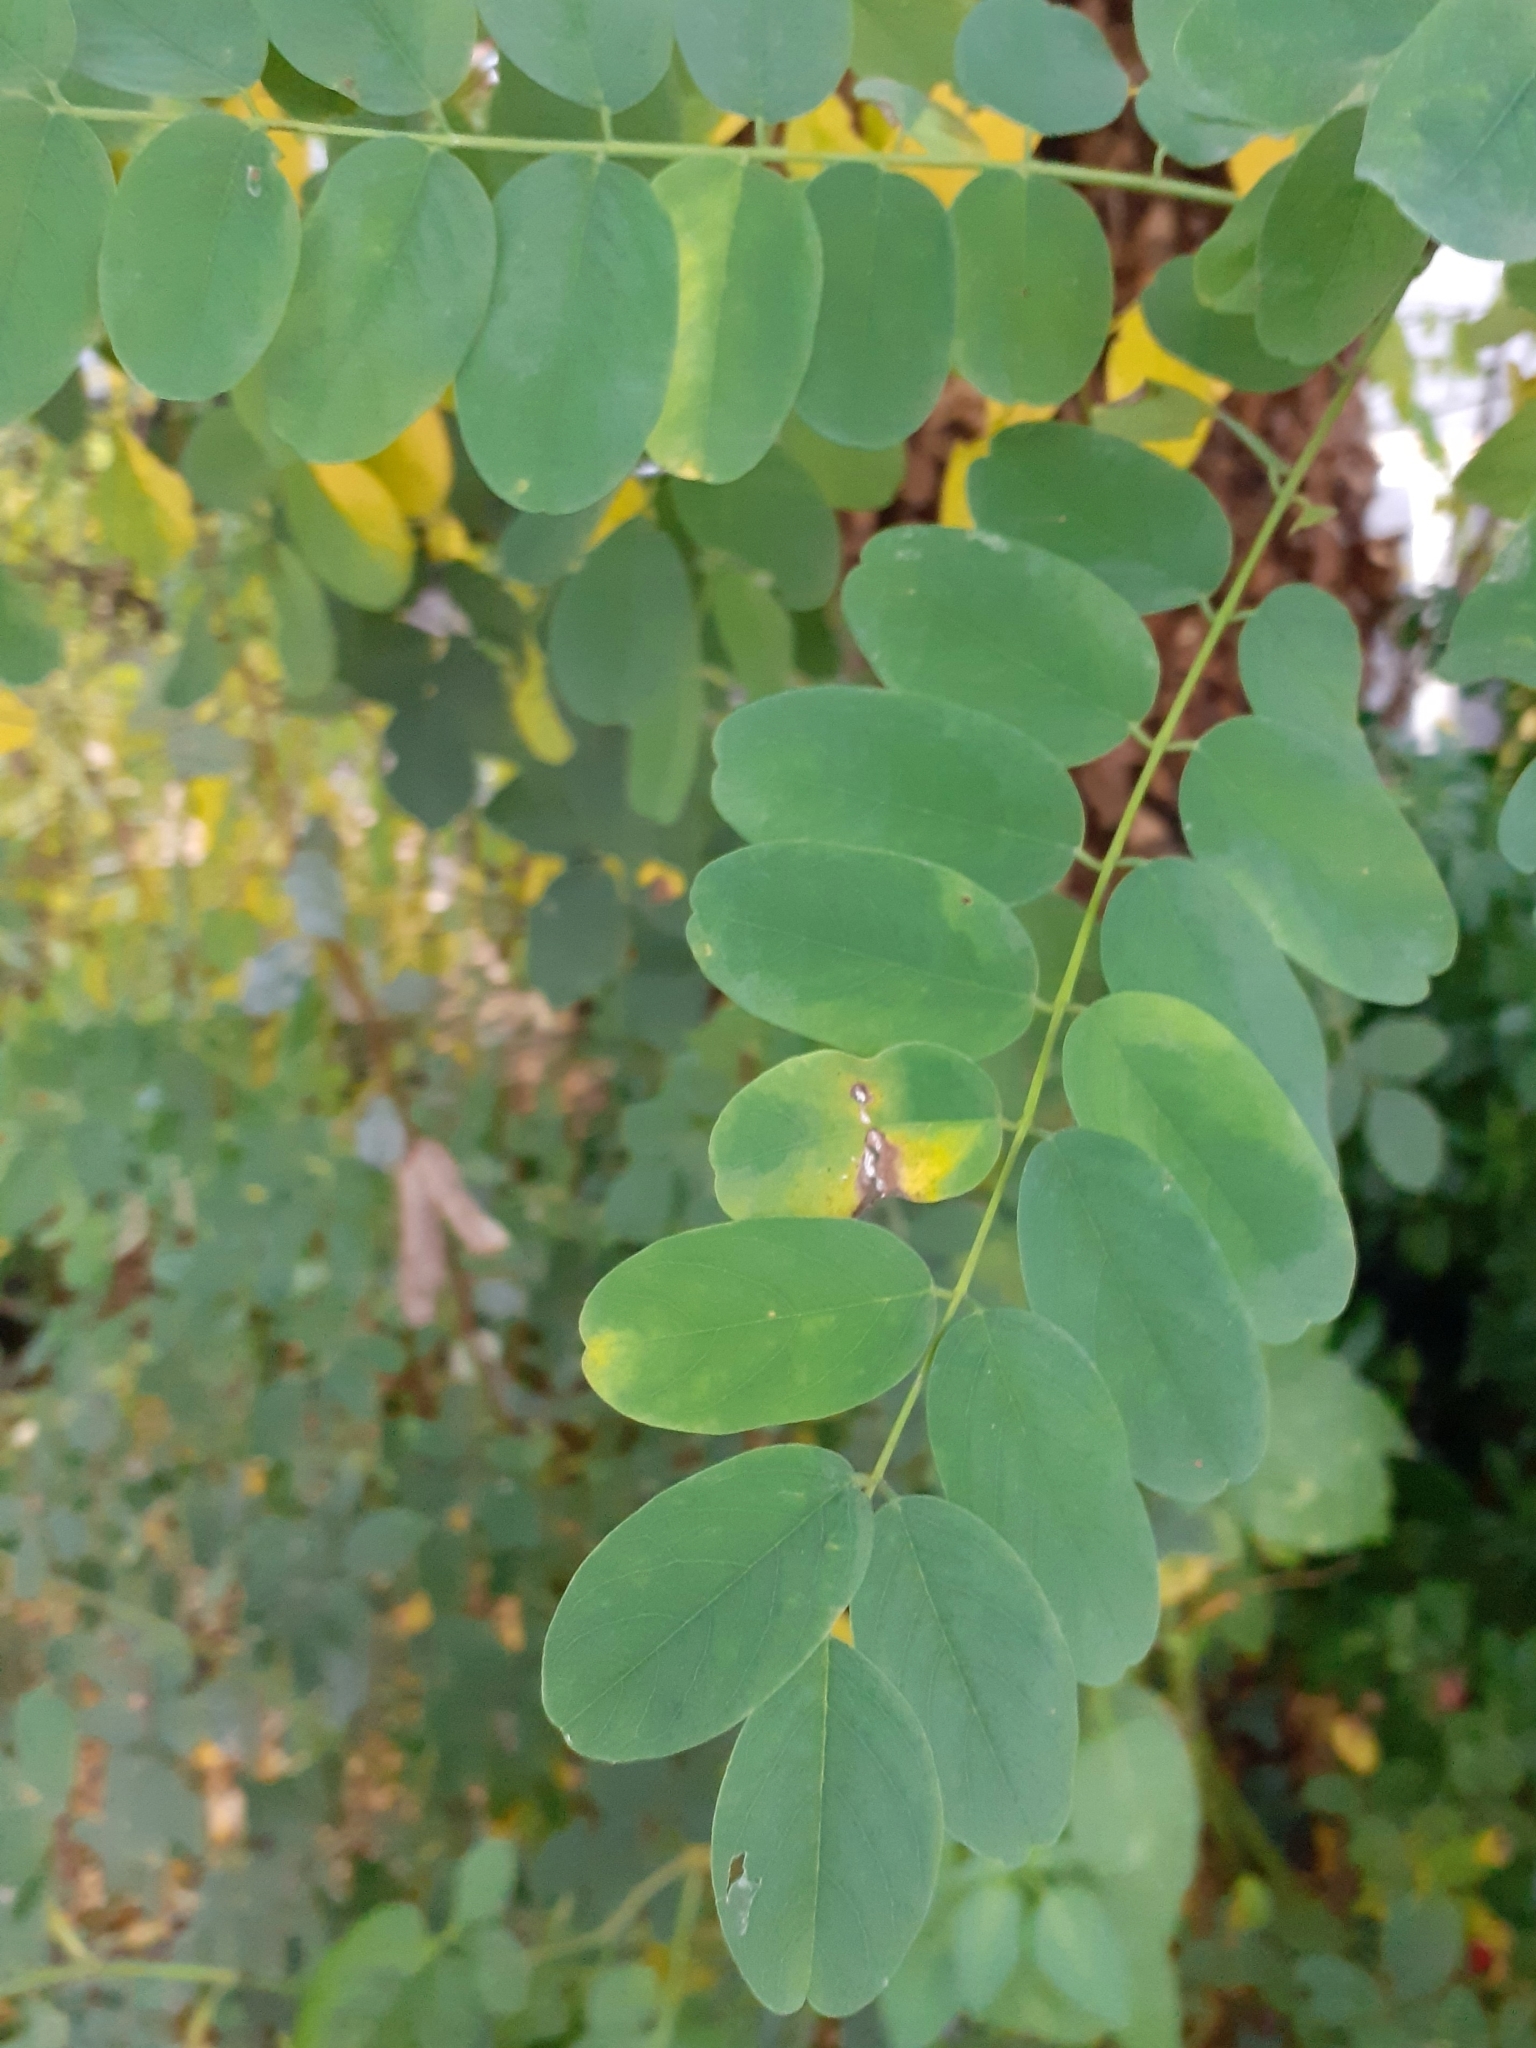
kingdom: Plantae
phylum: Tracheophyta
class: Magnoliopsida
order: Fabales
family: Fabaceae
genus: Robinia
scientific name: Robinia pseudoacacia
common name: Black locust
